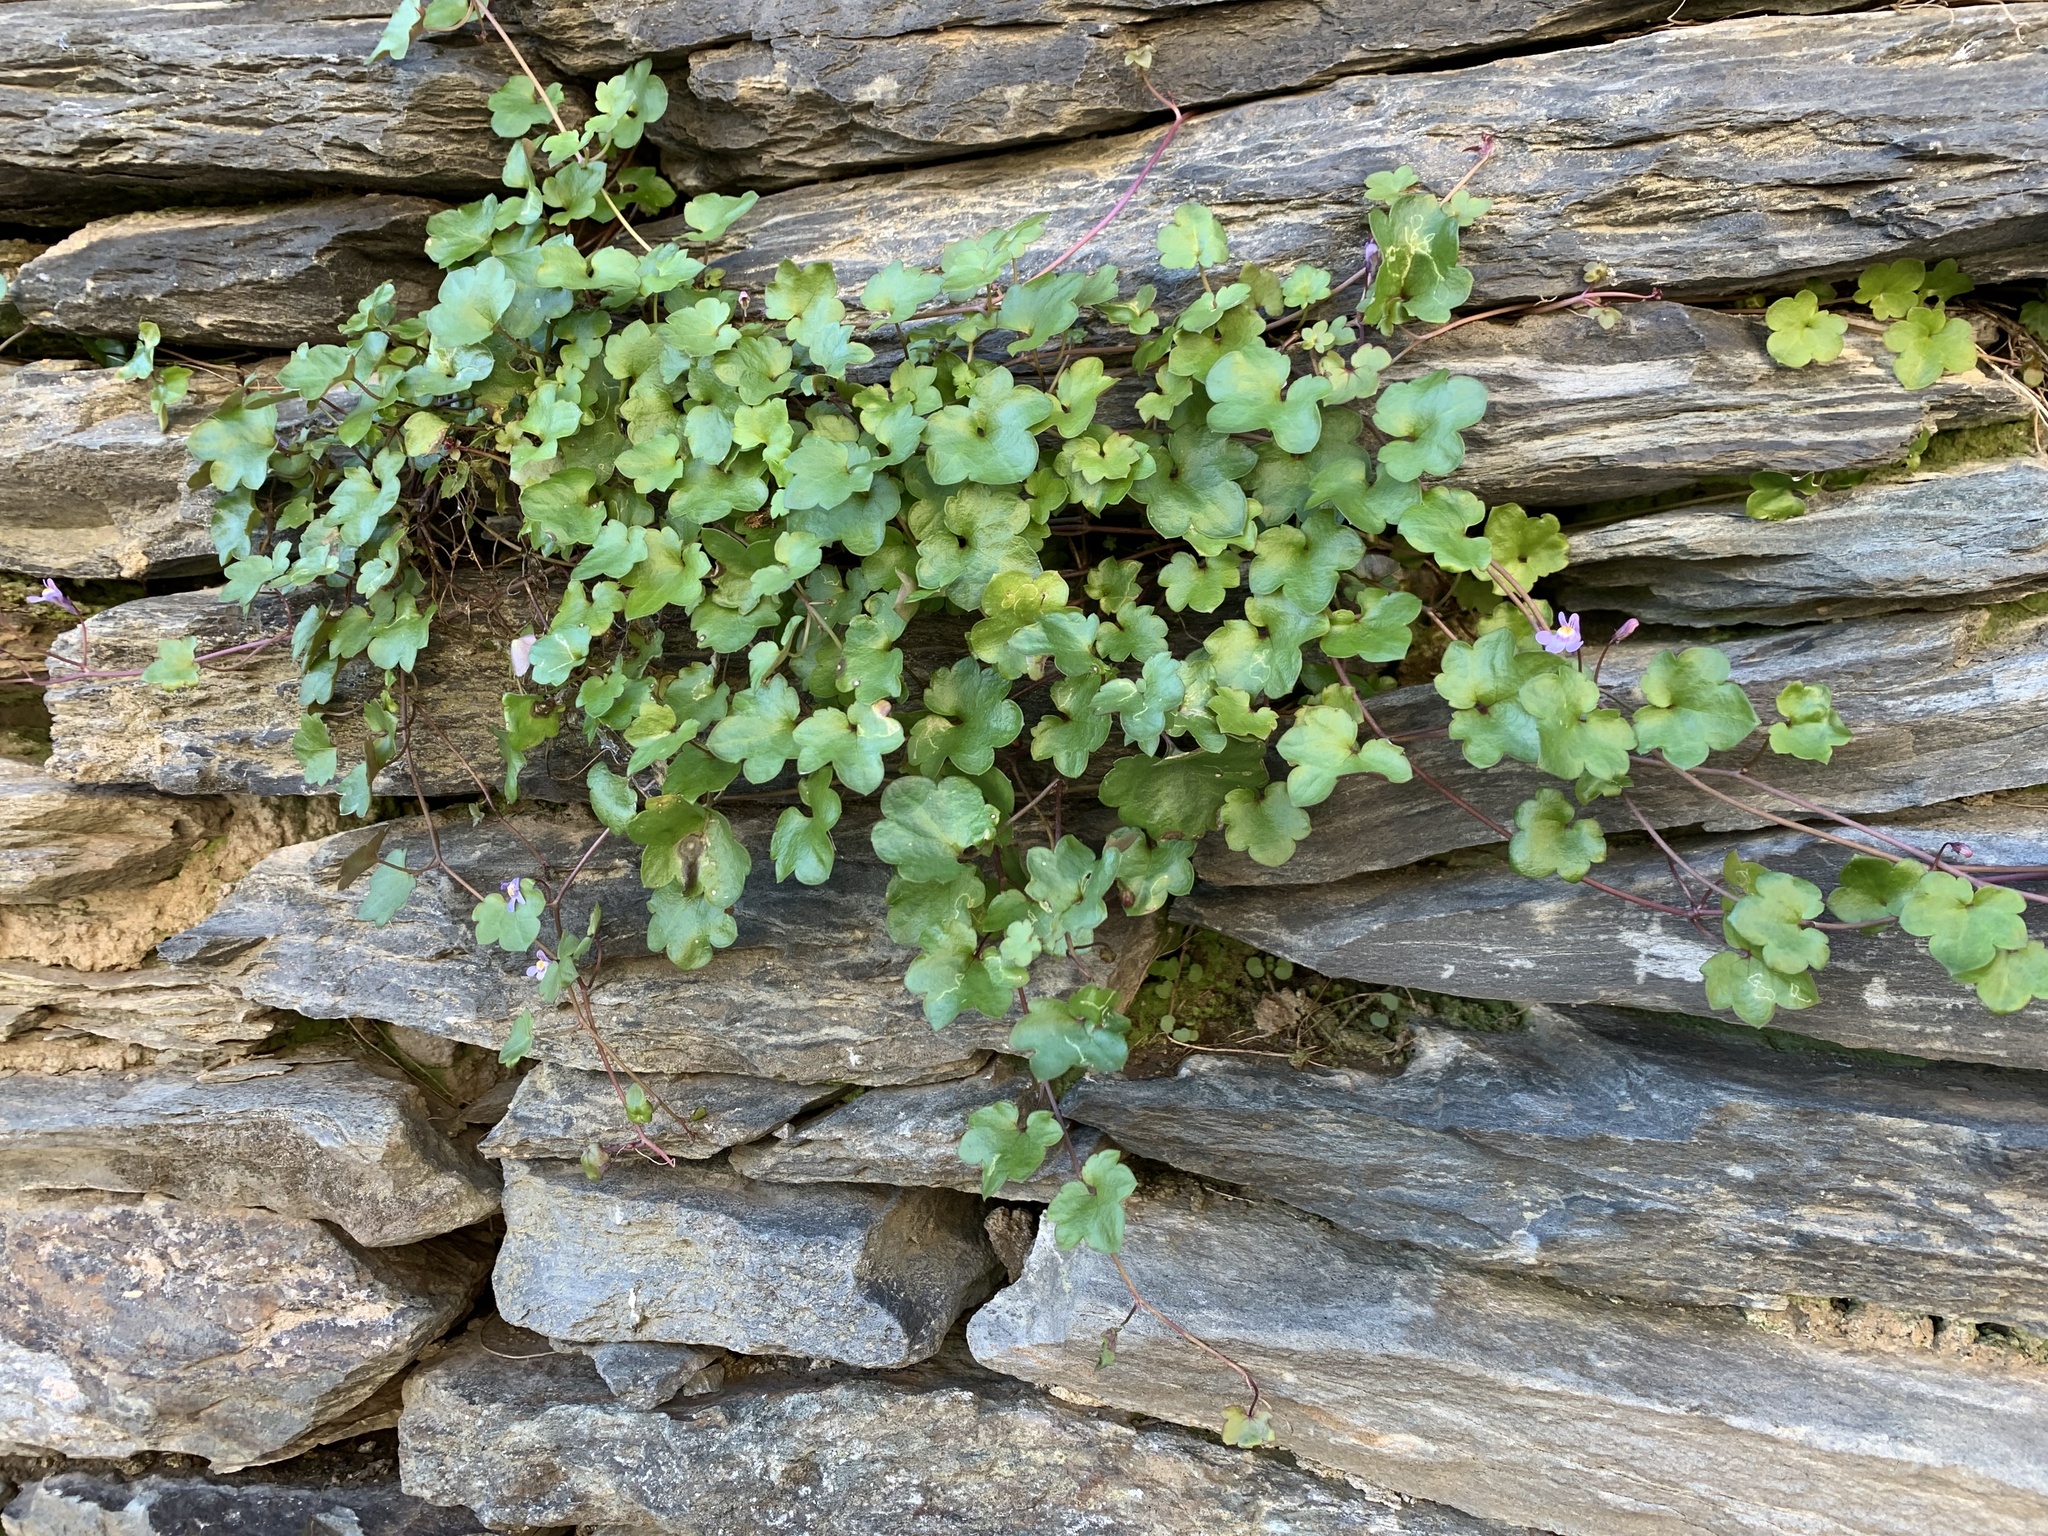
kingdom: Plantae
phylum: Tracheophyta
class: Magnoliopsida
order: Lamiales
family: Plantaginaceae
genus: Cymbalaria
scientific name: Cymbalaria muralis
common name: Ivy-leaved toadflax
